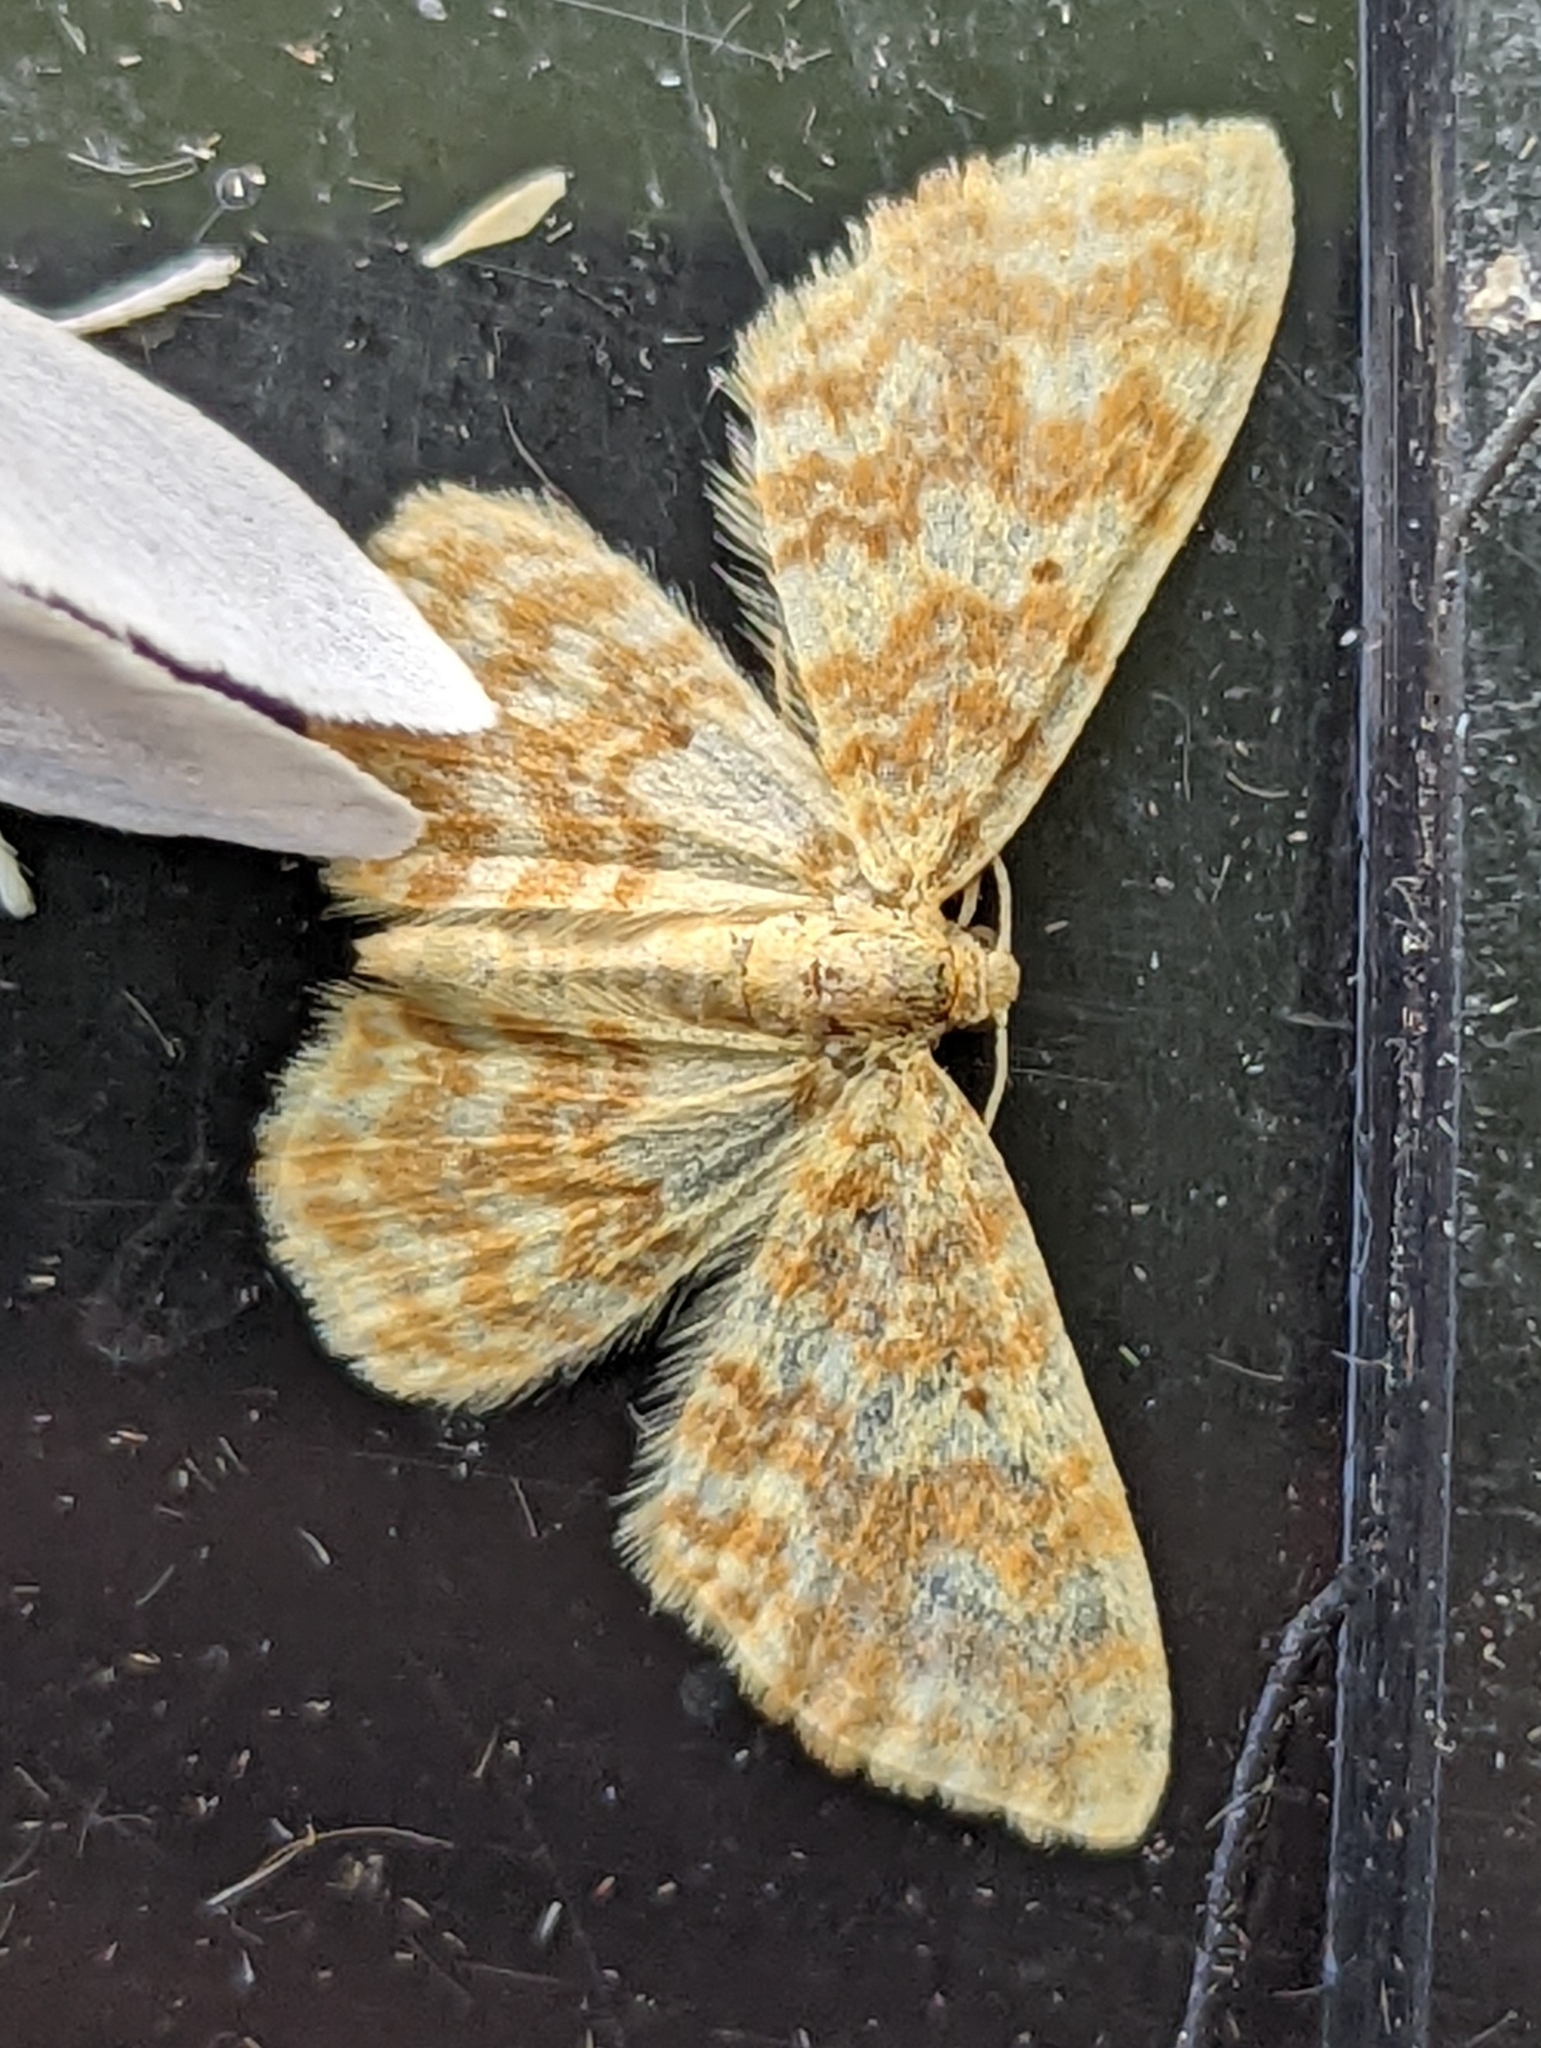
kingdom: Animalia
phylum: Arthropoda
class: Insecta
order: Lepidoptera
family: Geometridae
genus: Hydrelia
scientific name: Hydrelia flammeolaria
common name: Small yellow wave
